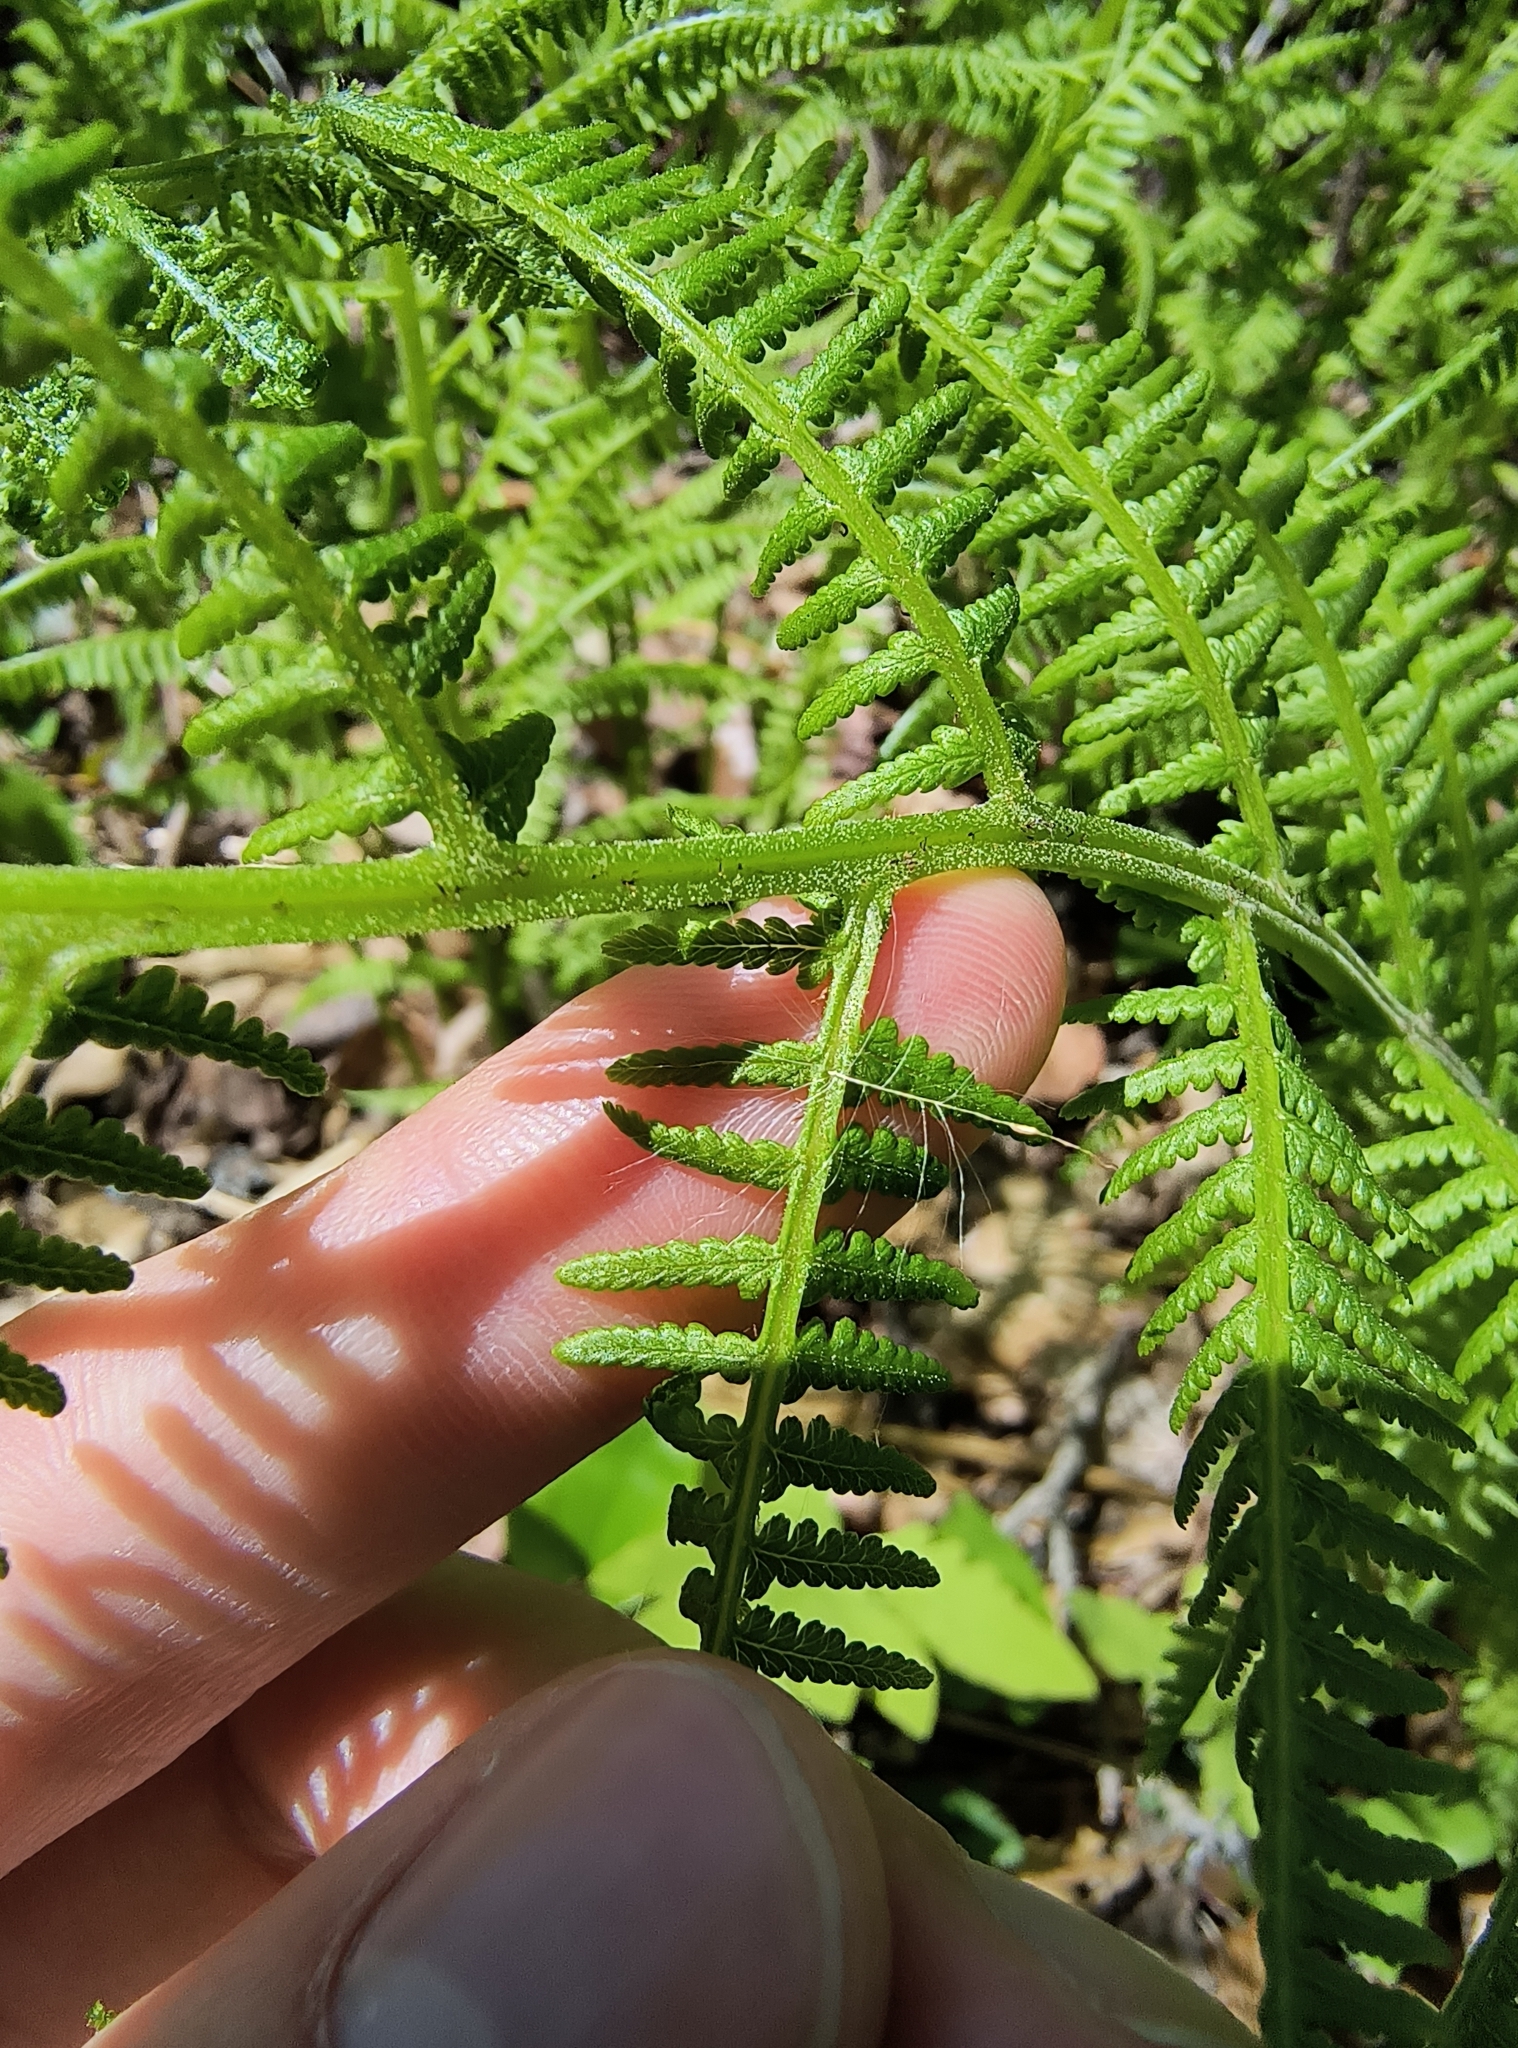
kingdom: Plantae
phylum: Tracheophyta
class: Polypodiopsida
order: Polypodiales
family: Athyriaceae
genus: Athyrium
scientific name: Athyrium angustum
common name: Northern lady fern
